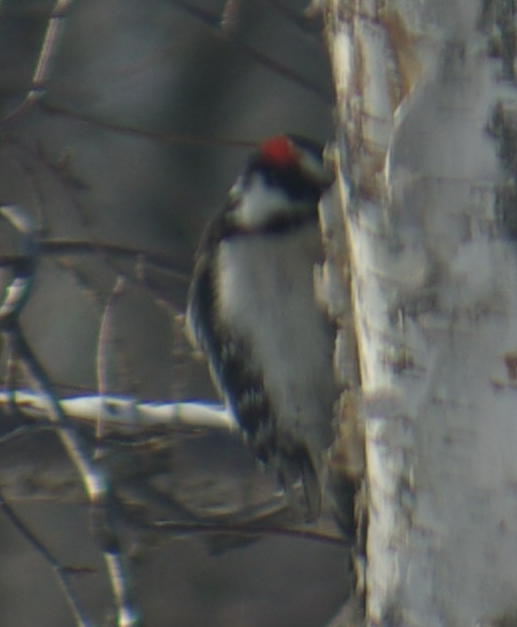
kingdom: Animalia
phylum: Chordata
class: Aves
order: Piciformes
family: Picidae
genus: Dryobates
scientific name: Dryobates pubescens
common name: Downy woodpecker
